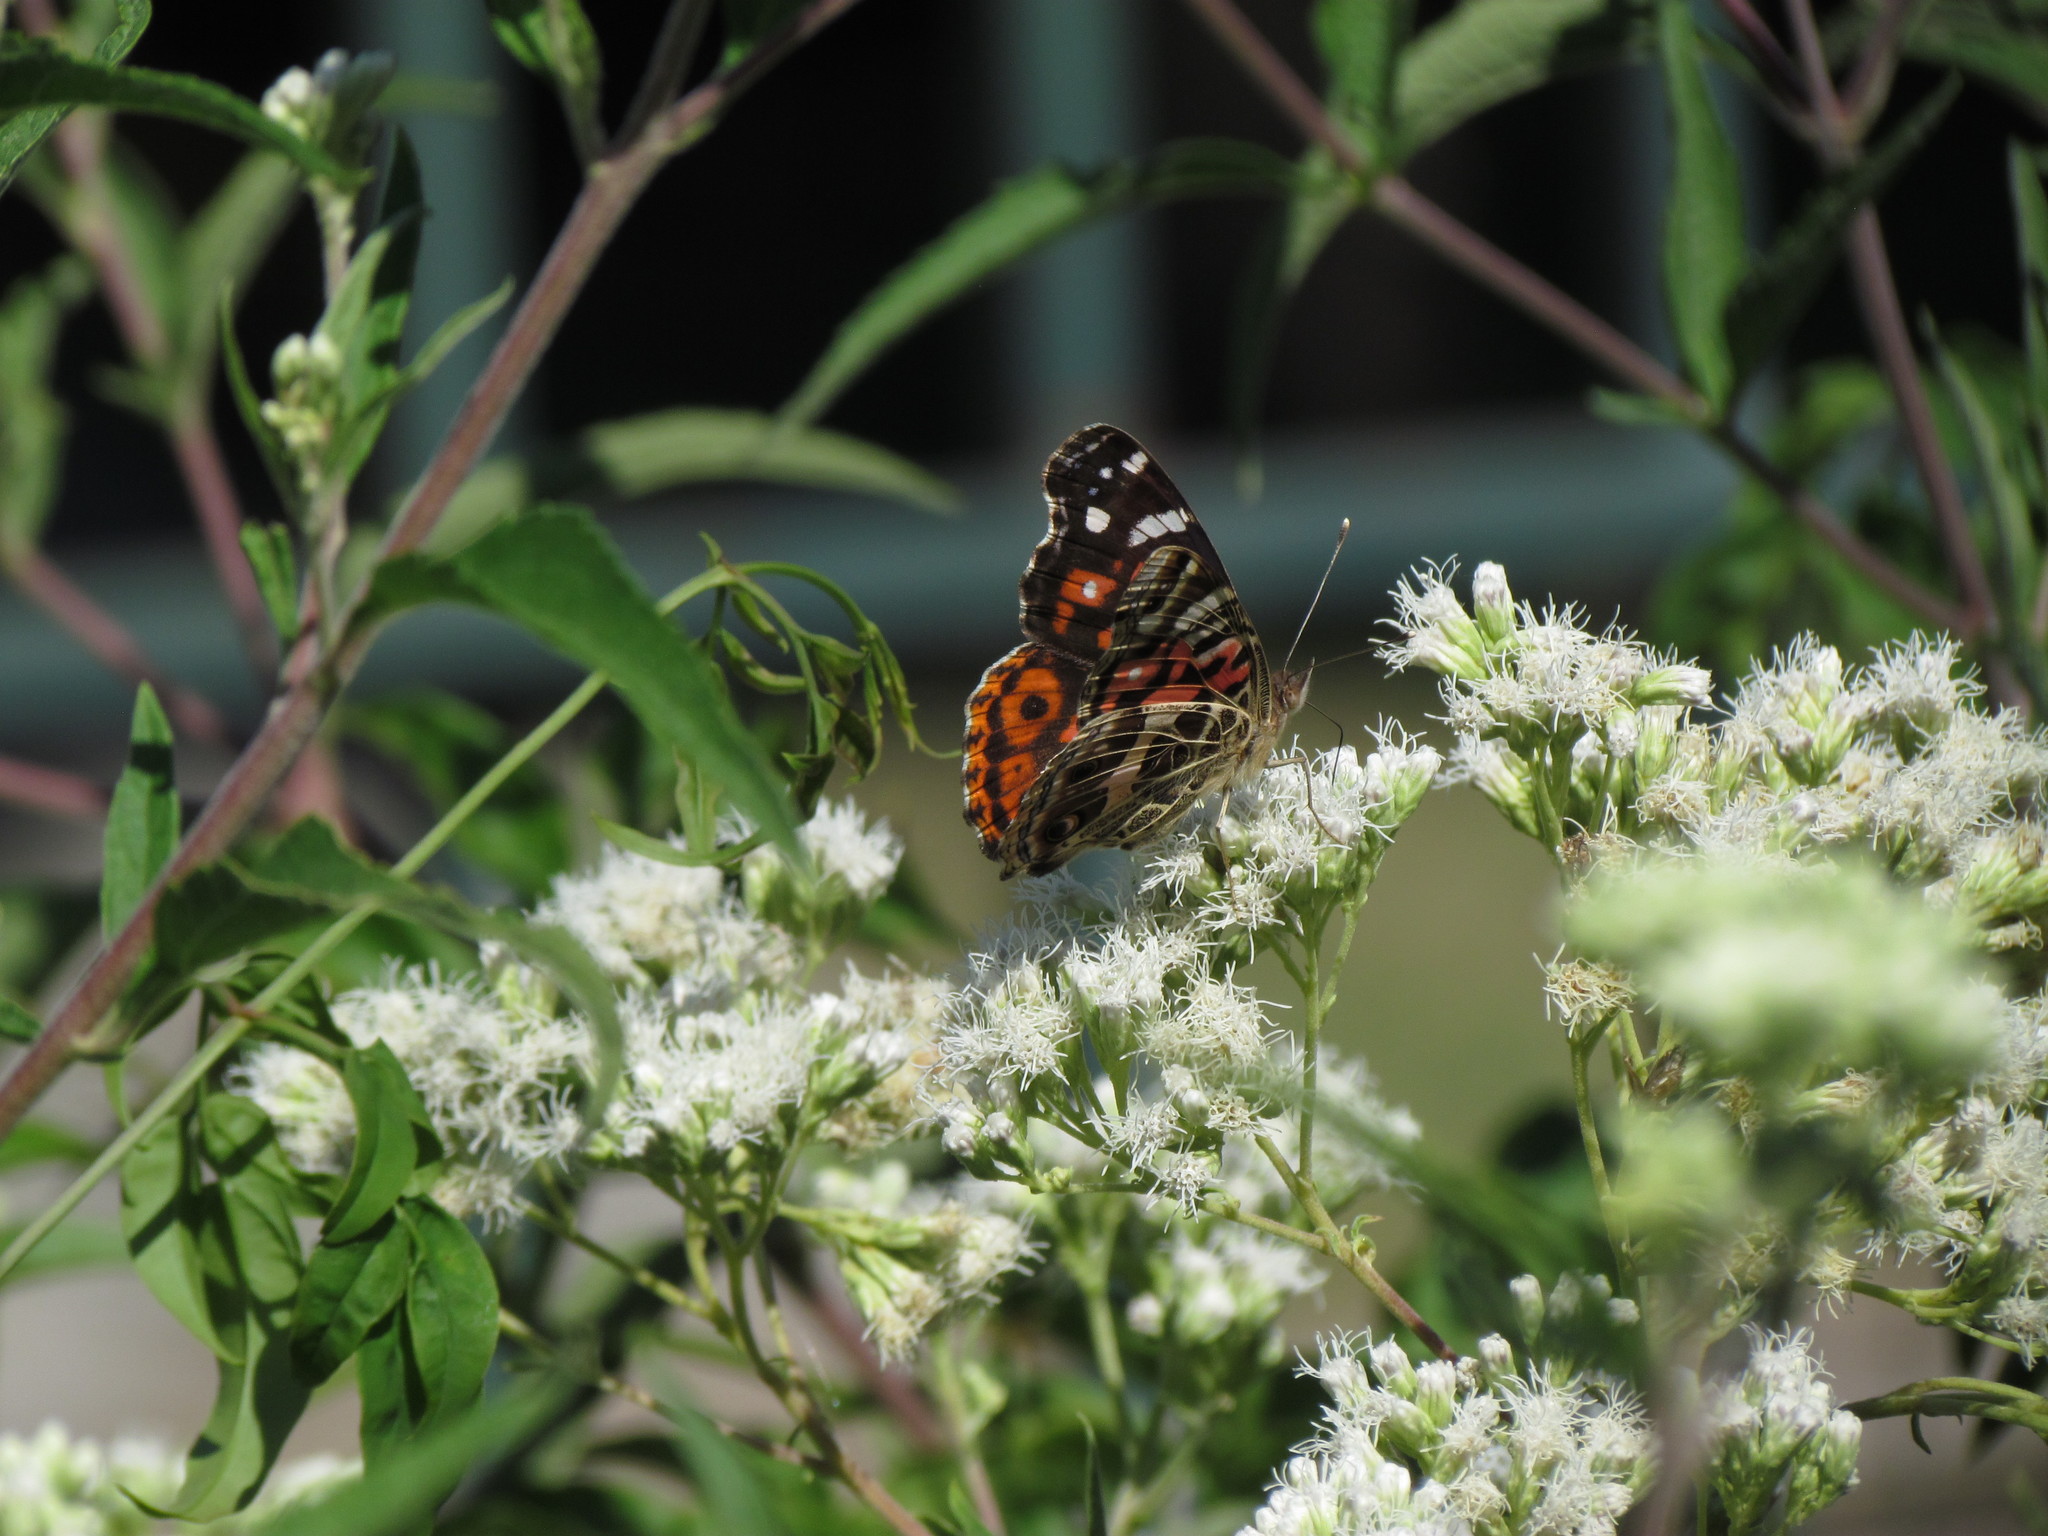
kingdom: Animalia
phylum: Arthropoda
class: Insecta
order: Lepidoptera
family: Nymphalidae
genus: Vanessa
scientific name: Vanessa braziliensis
